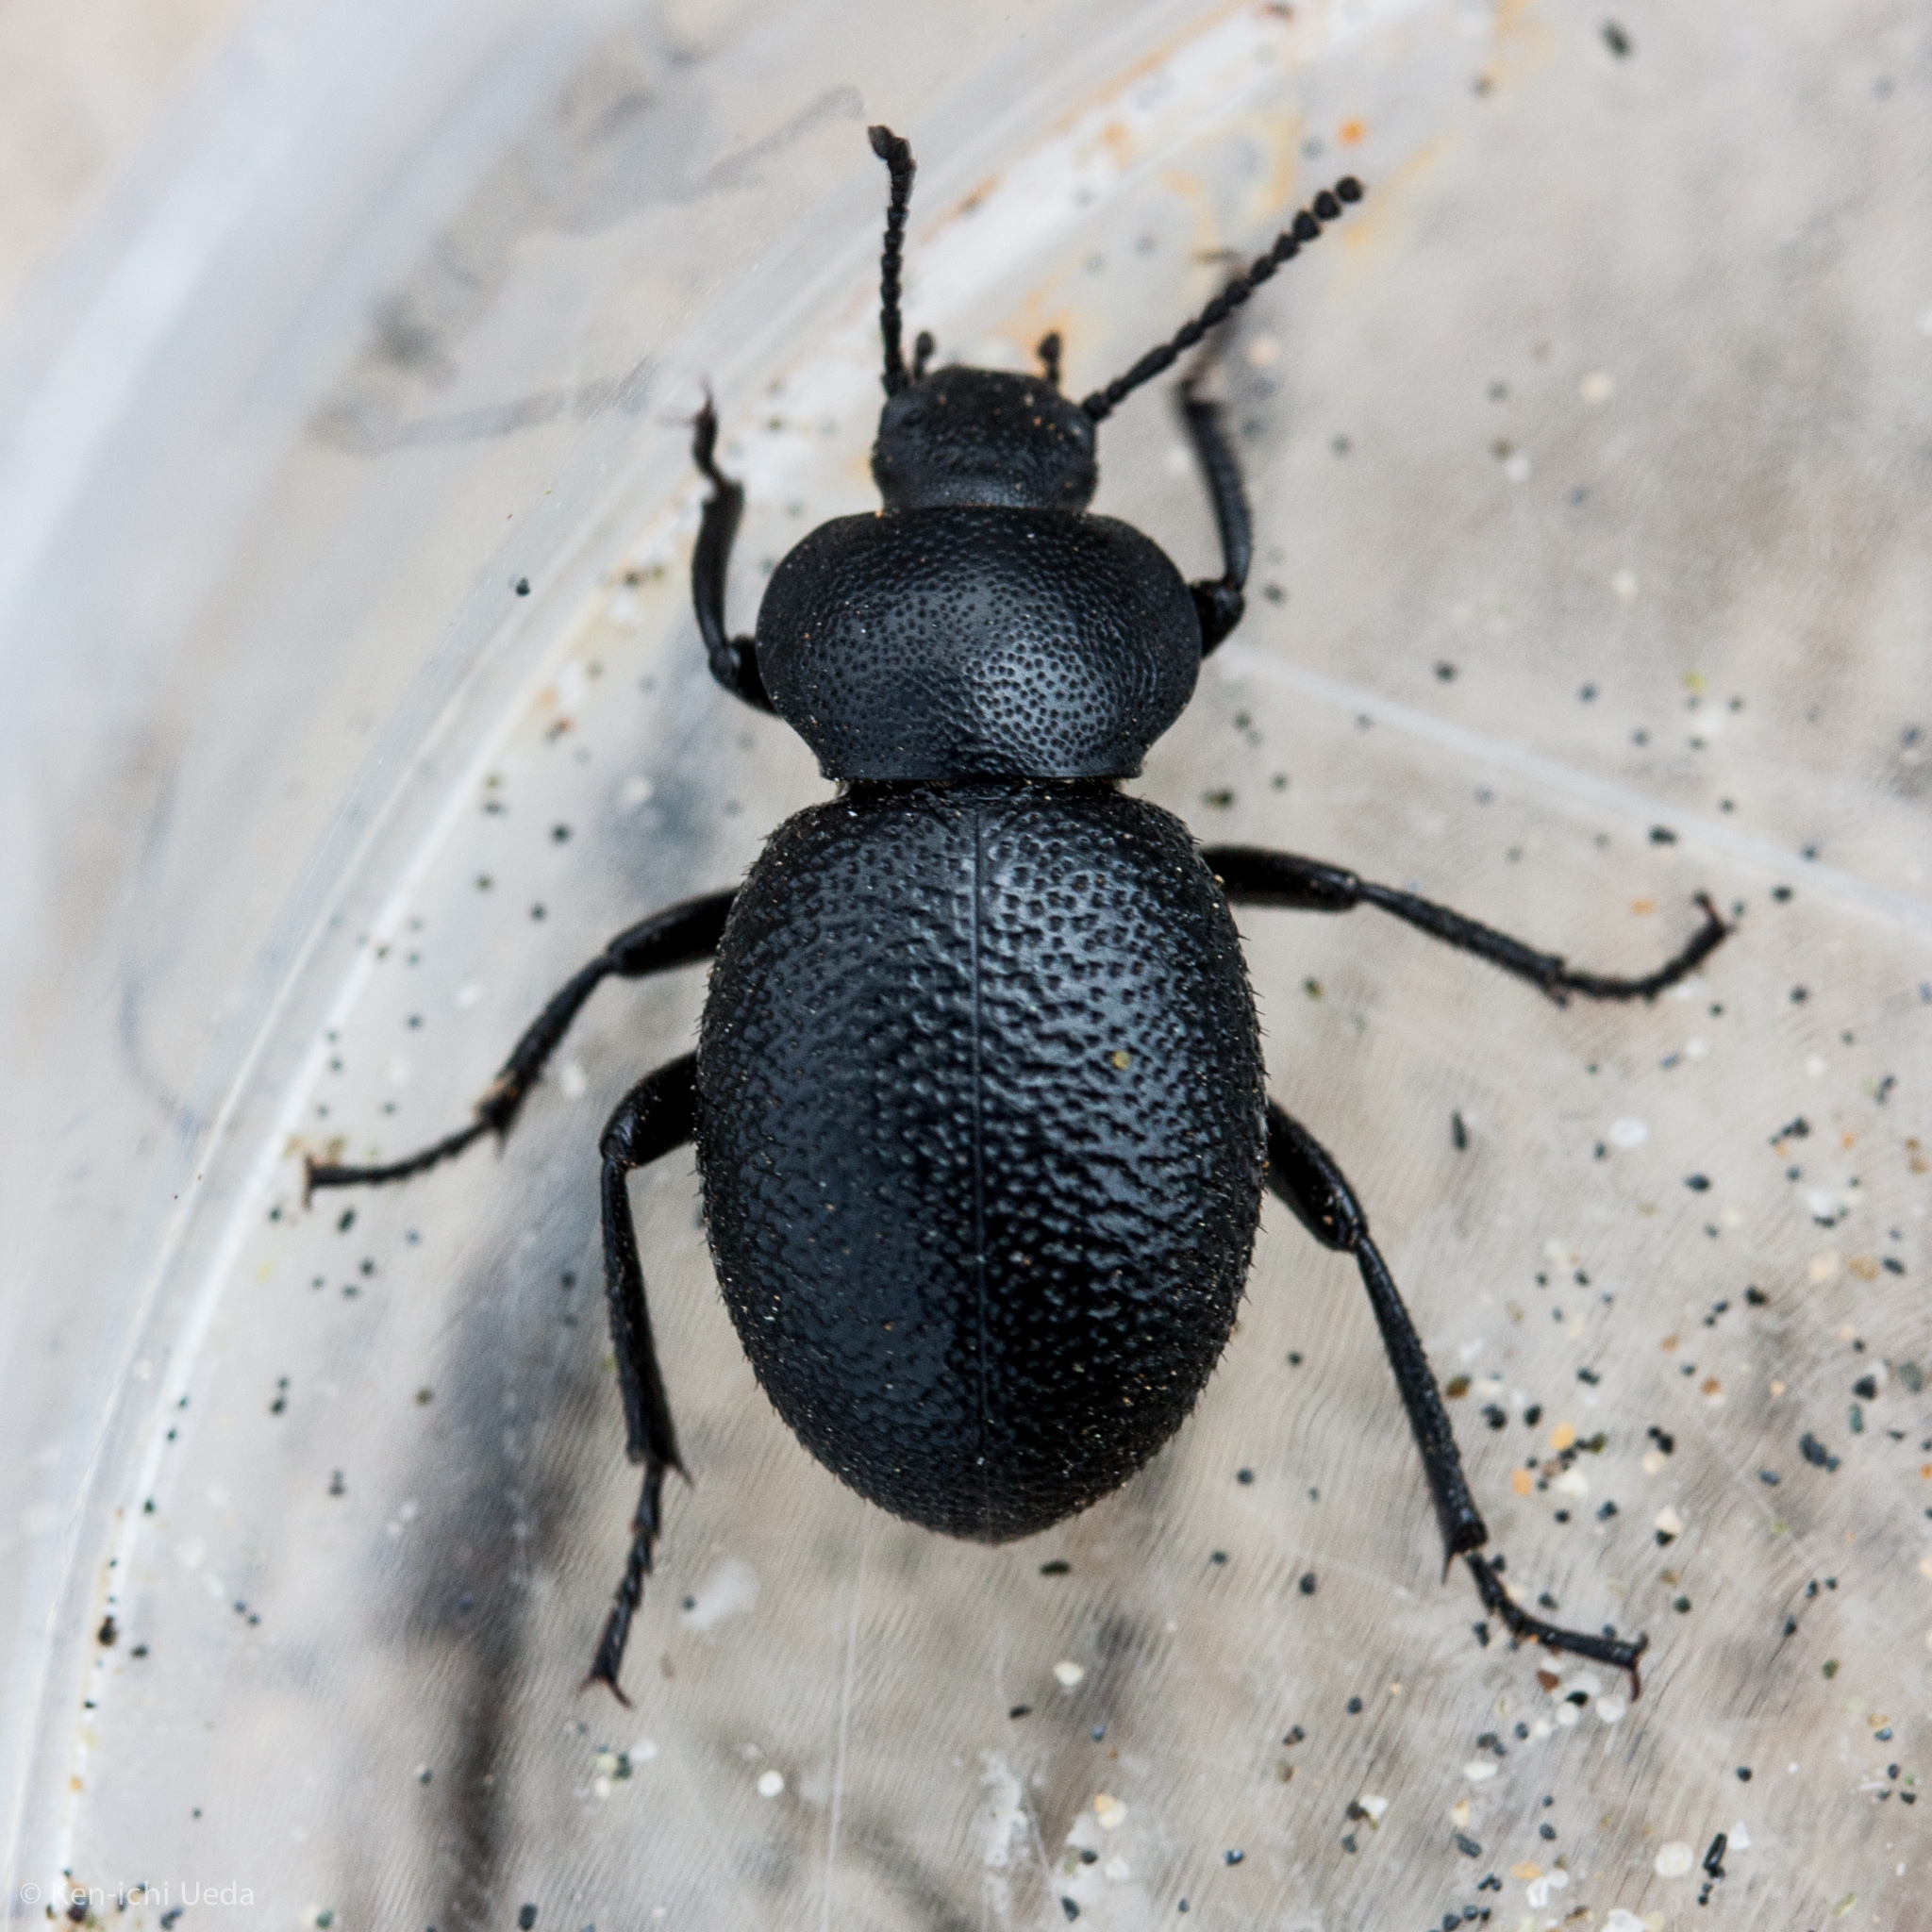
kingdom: Animalia
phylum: Arthropoda
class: Insecta
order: Coleoptera
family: Tenebrionidae
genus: Eleodes
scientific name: Eleodes scabrosa
